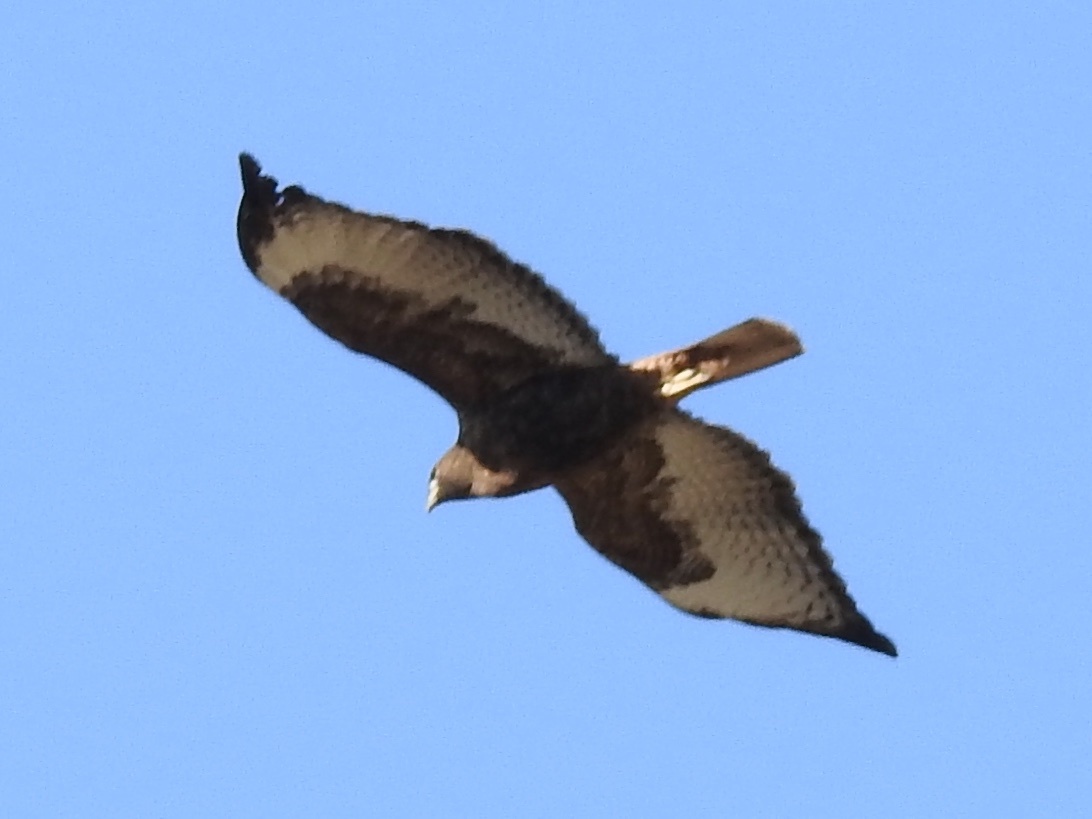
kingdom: Animalia
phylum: Chordata
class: Aves
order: Accipitriformes
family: Accipitridae
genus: Buteo
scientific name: Buteo jamaicensis
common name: Red-tailed hawk
